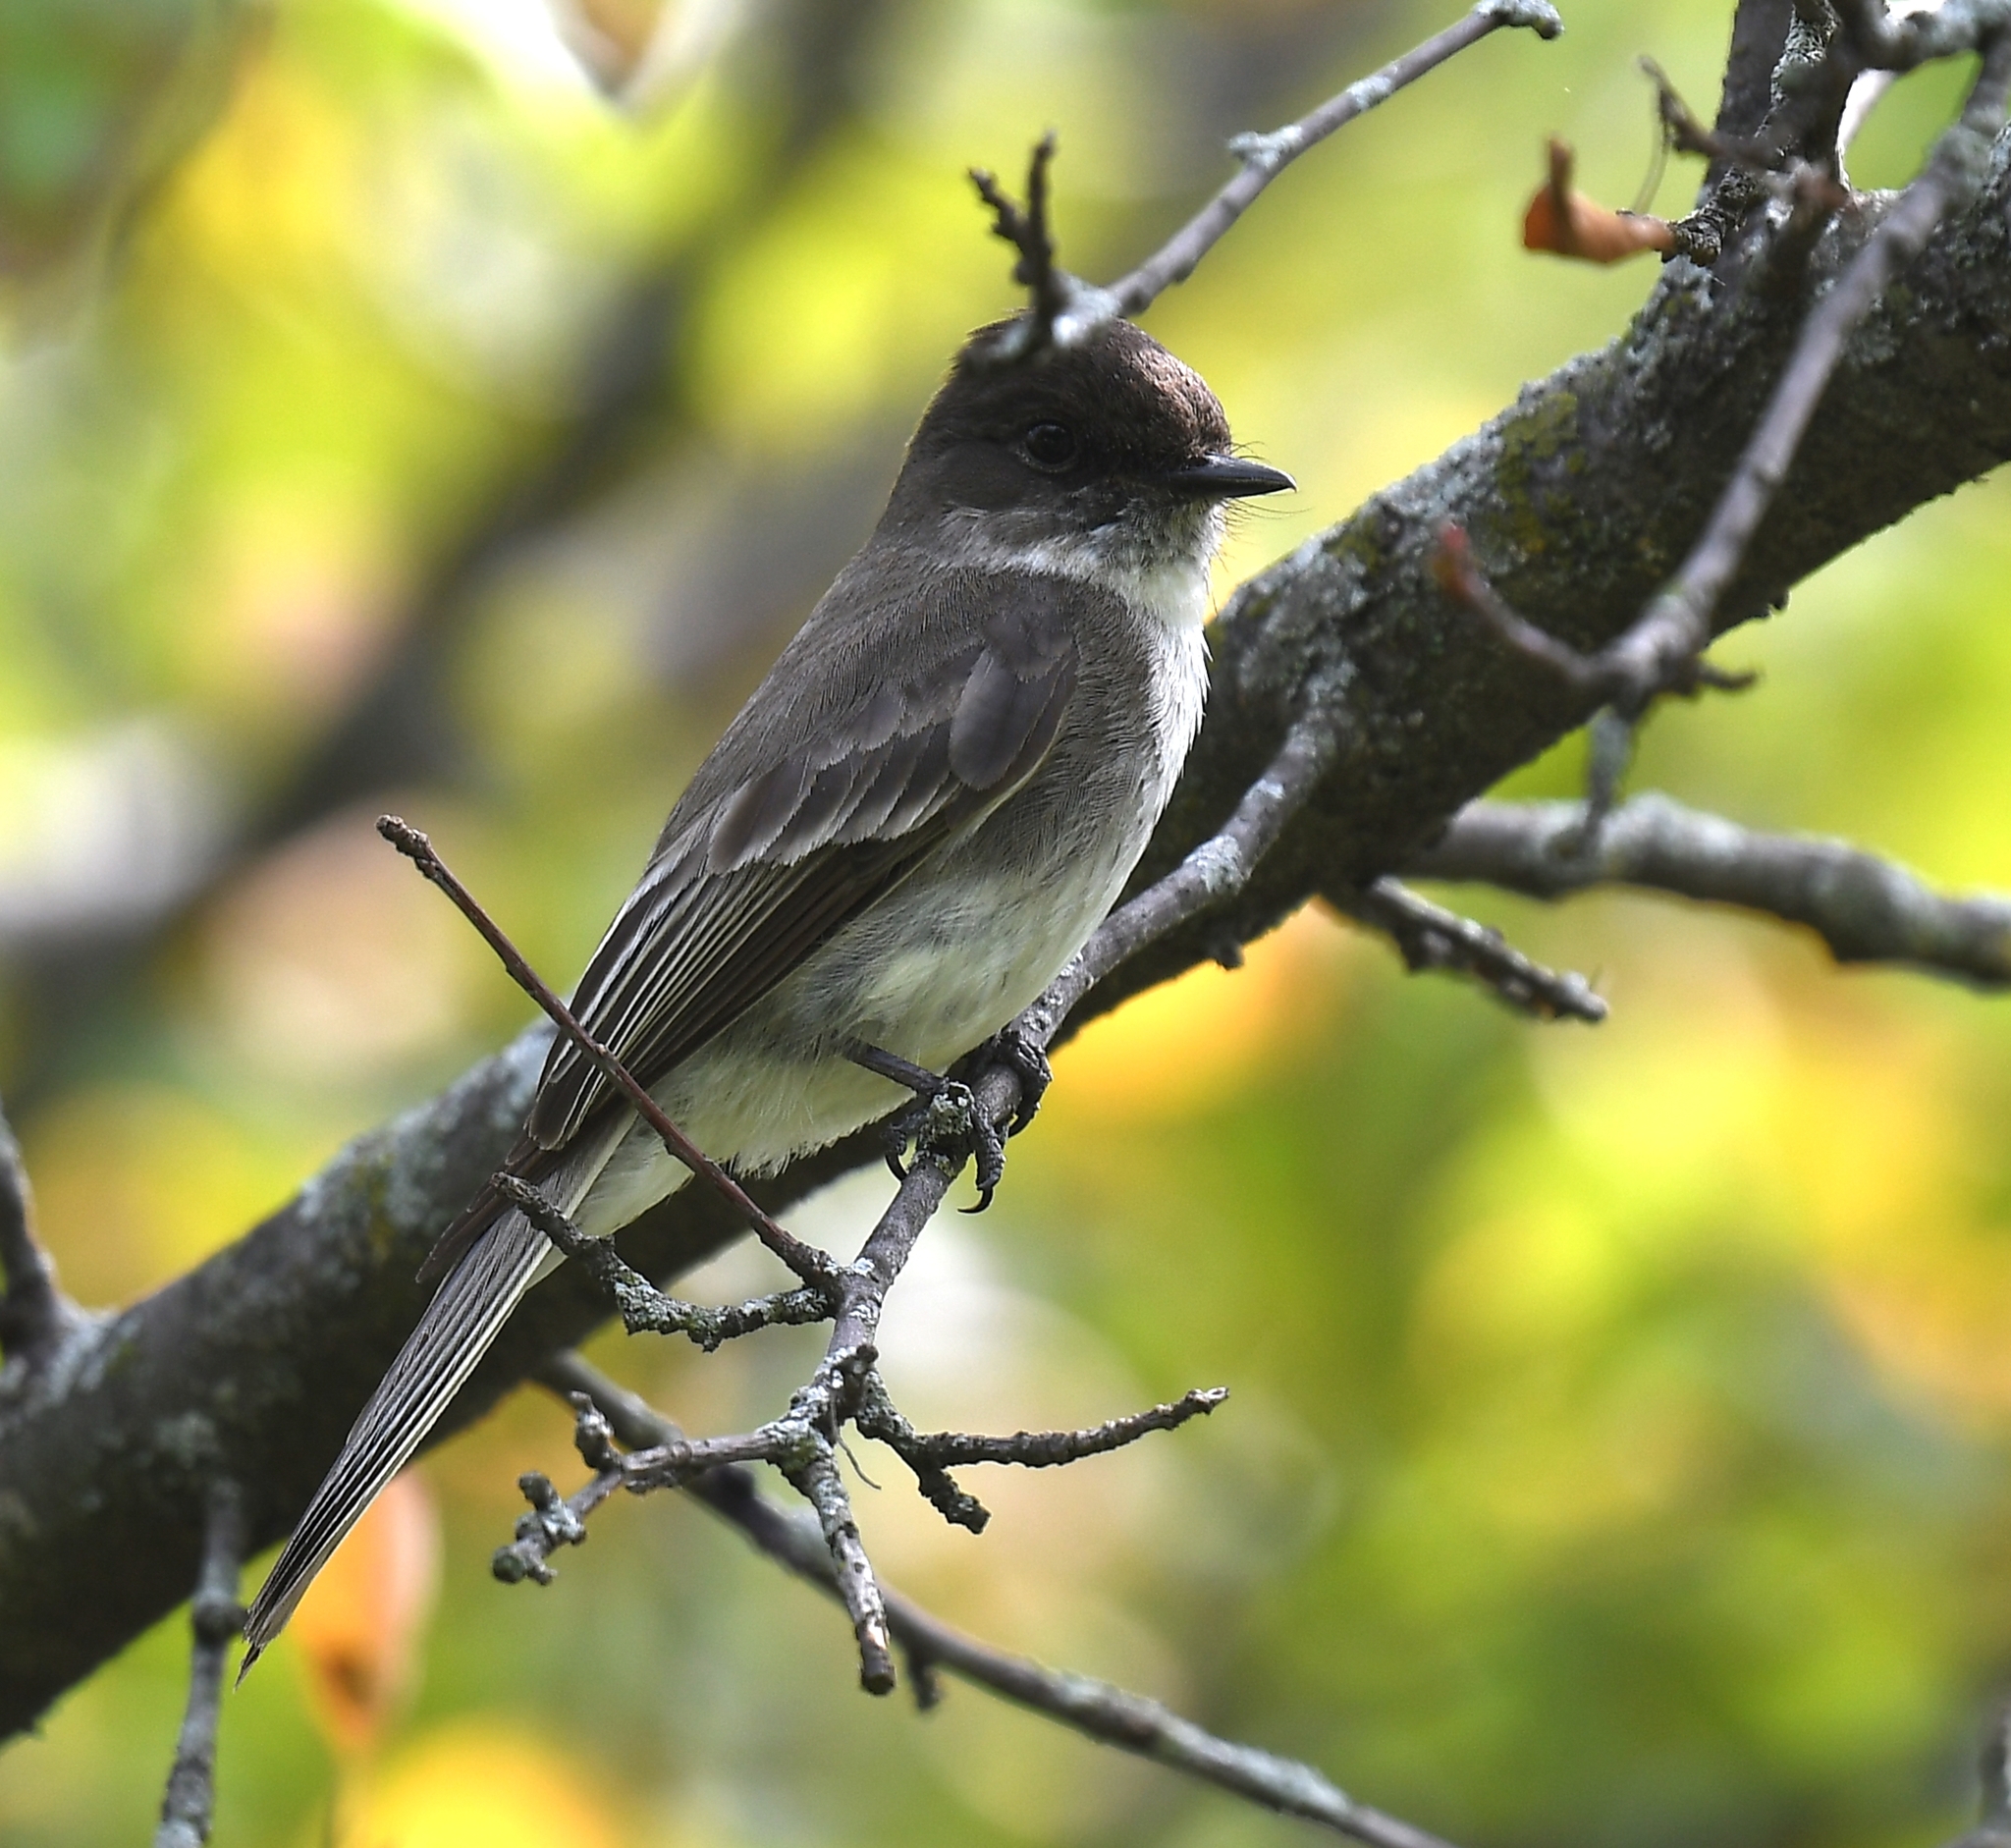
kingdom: Animalia
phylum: Chordata
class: Aves
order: Passeriformes
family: Tyrannidae
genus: Sayornis
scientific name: Sayornis phoebe
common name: Eastern phoebe
